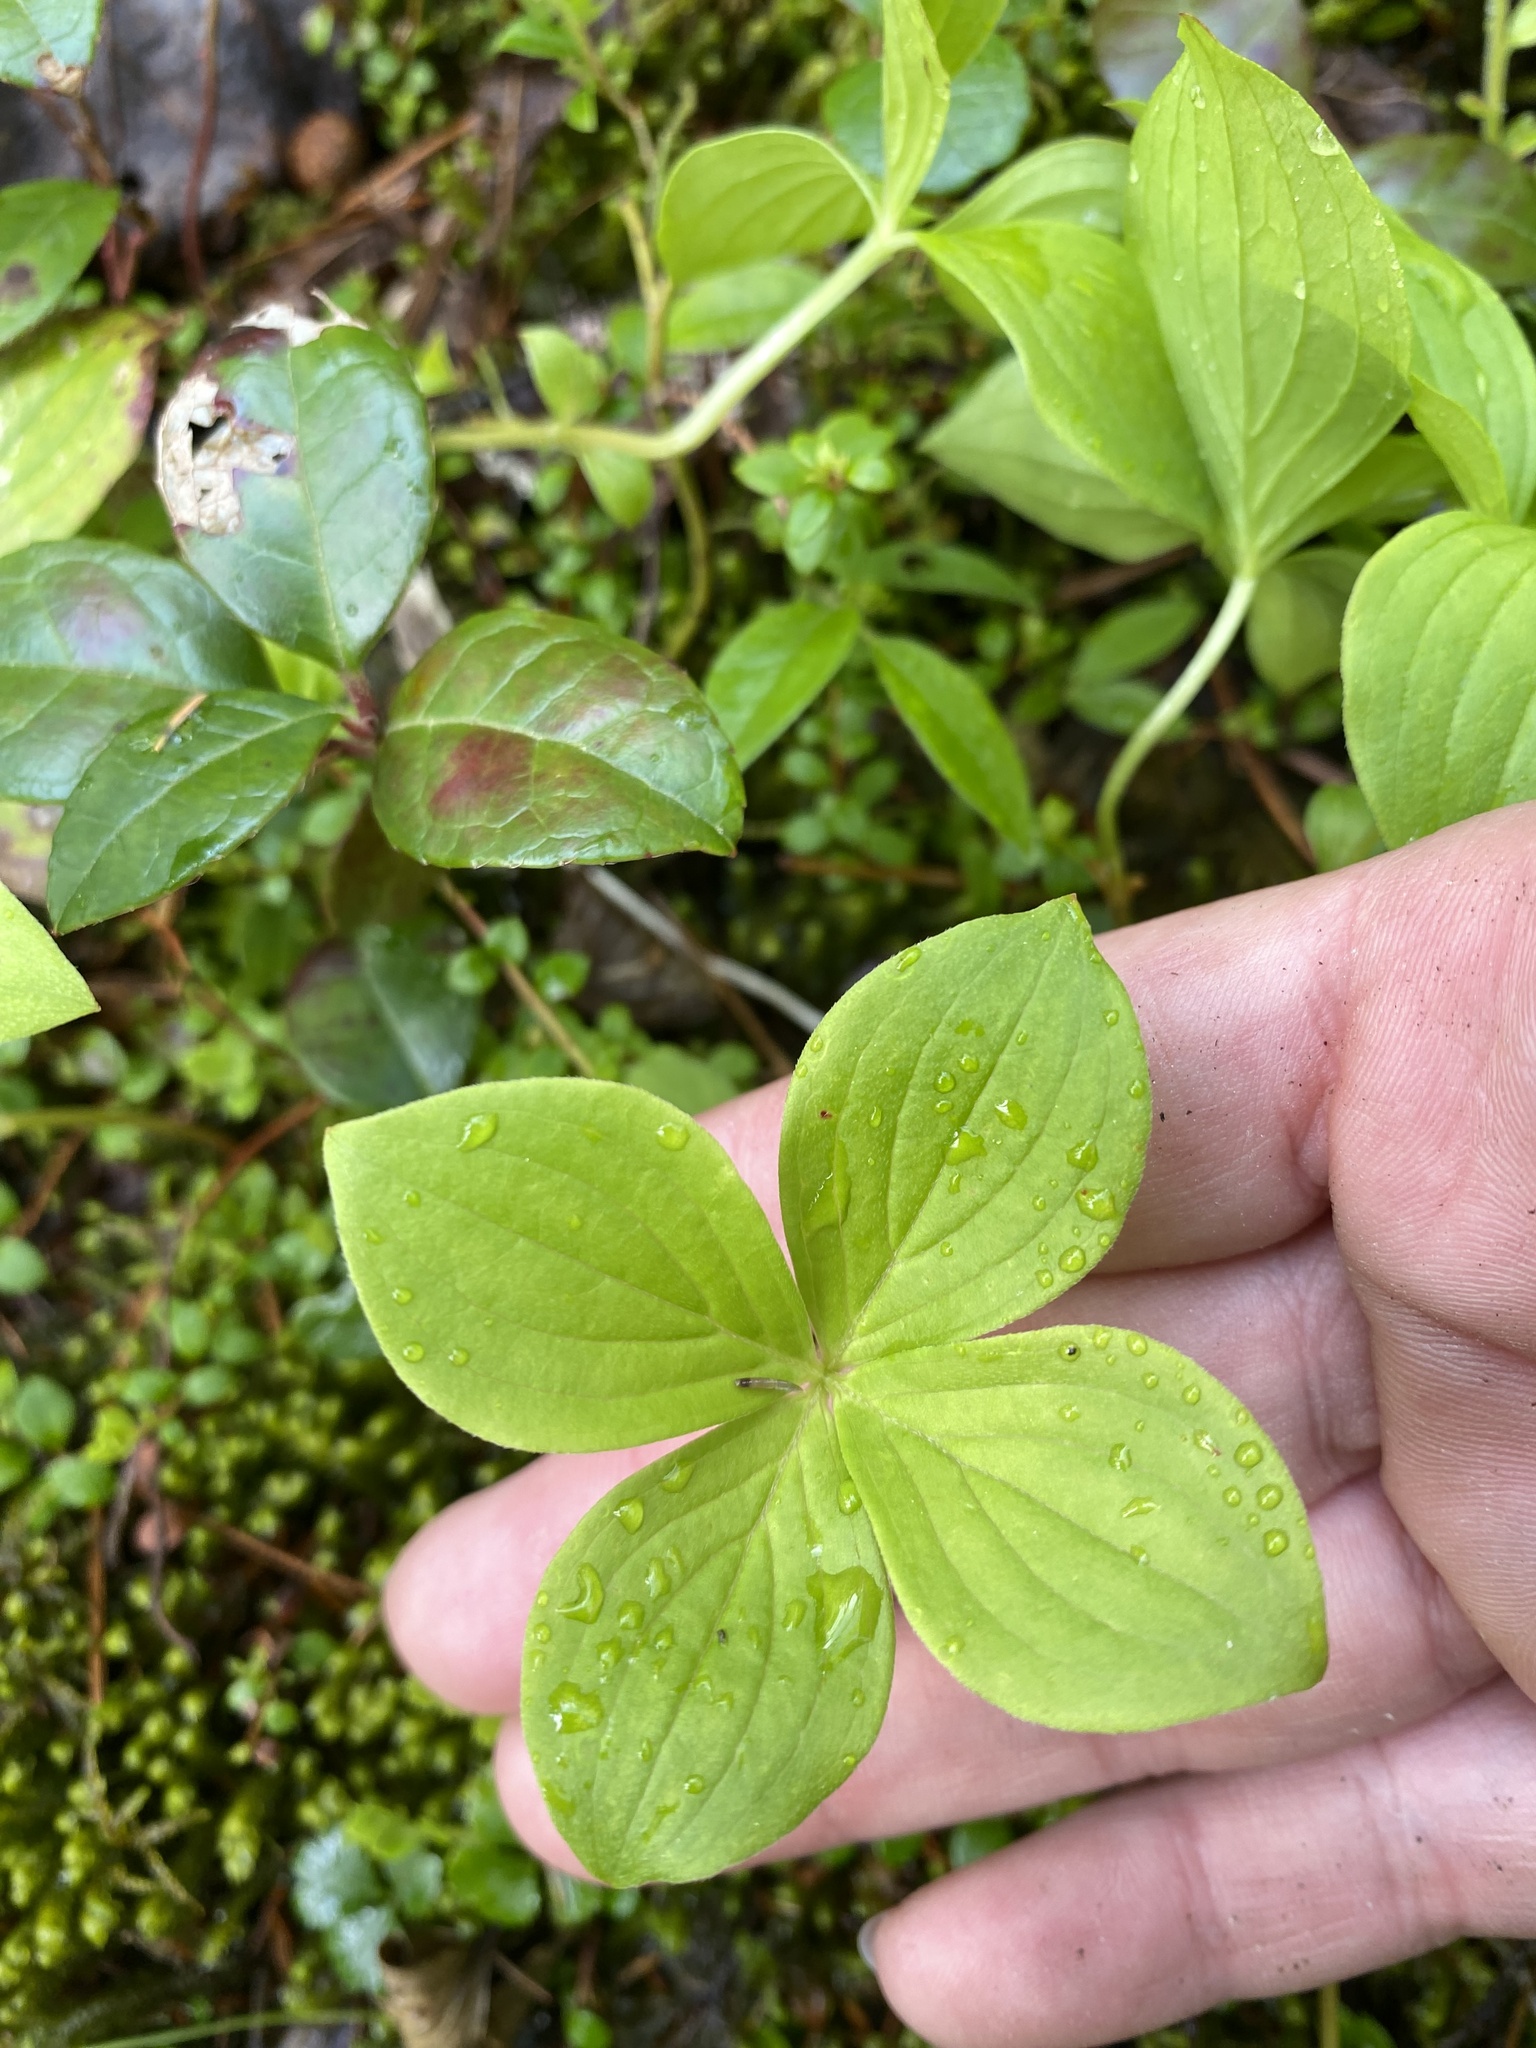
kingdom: Plantae
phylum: Tracheophyta
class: Magnoliopsida
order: Cornales
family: Cornaceae
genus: Cornus
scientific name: Cornus canadensis
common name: Creeping dogwood
